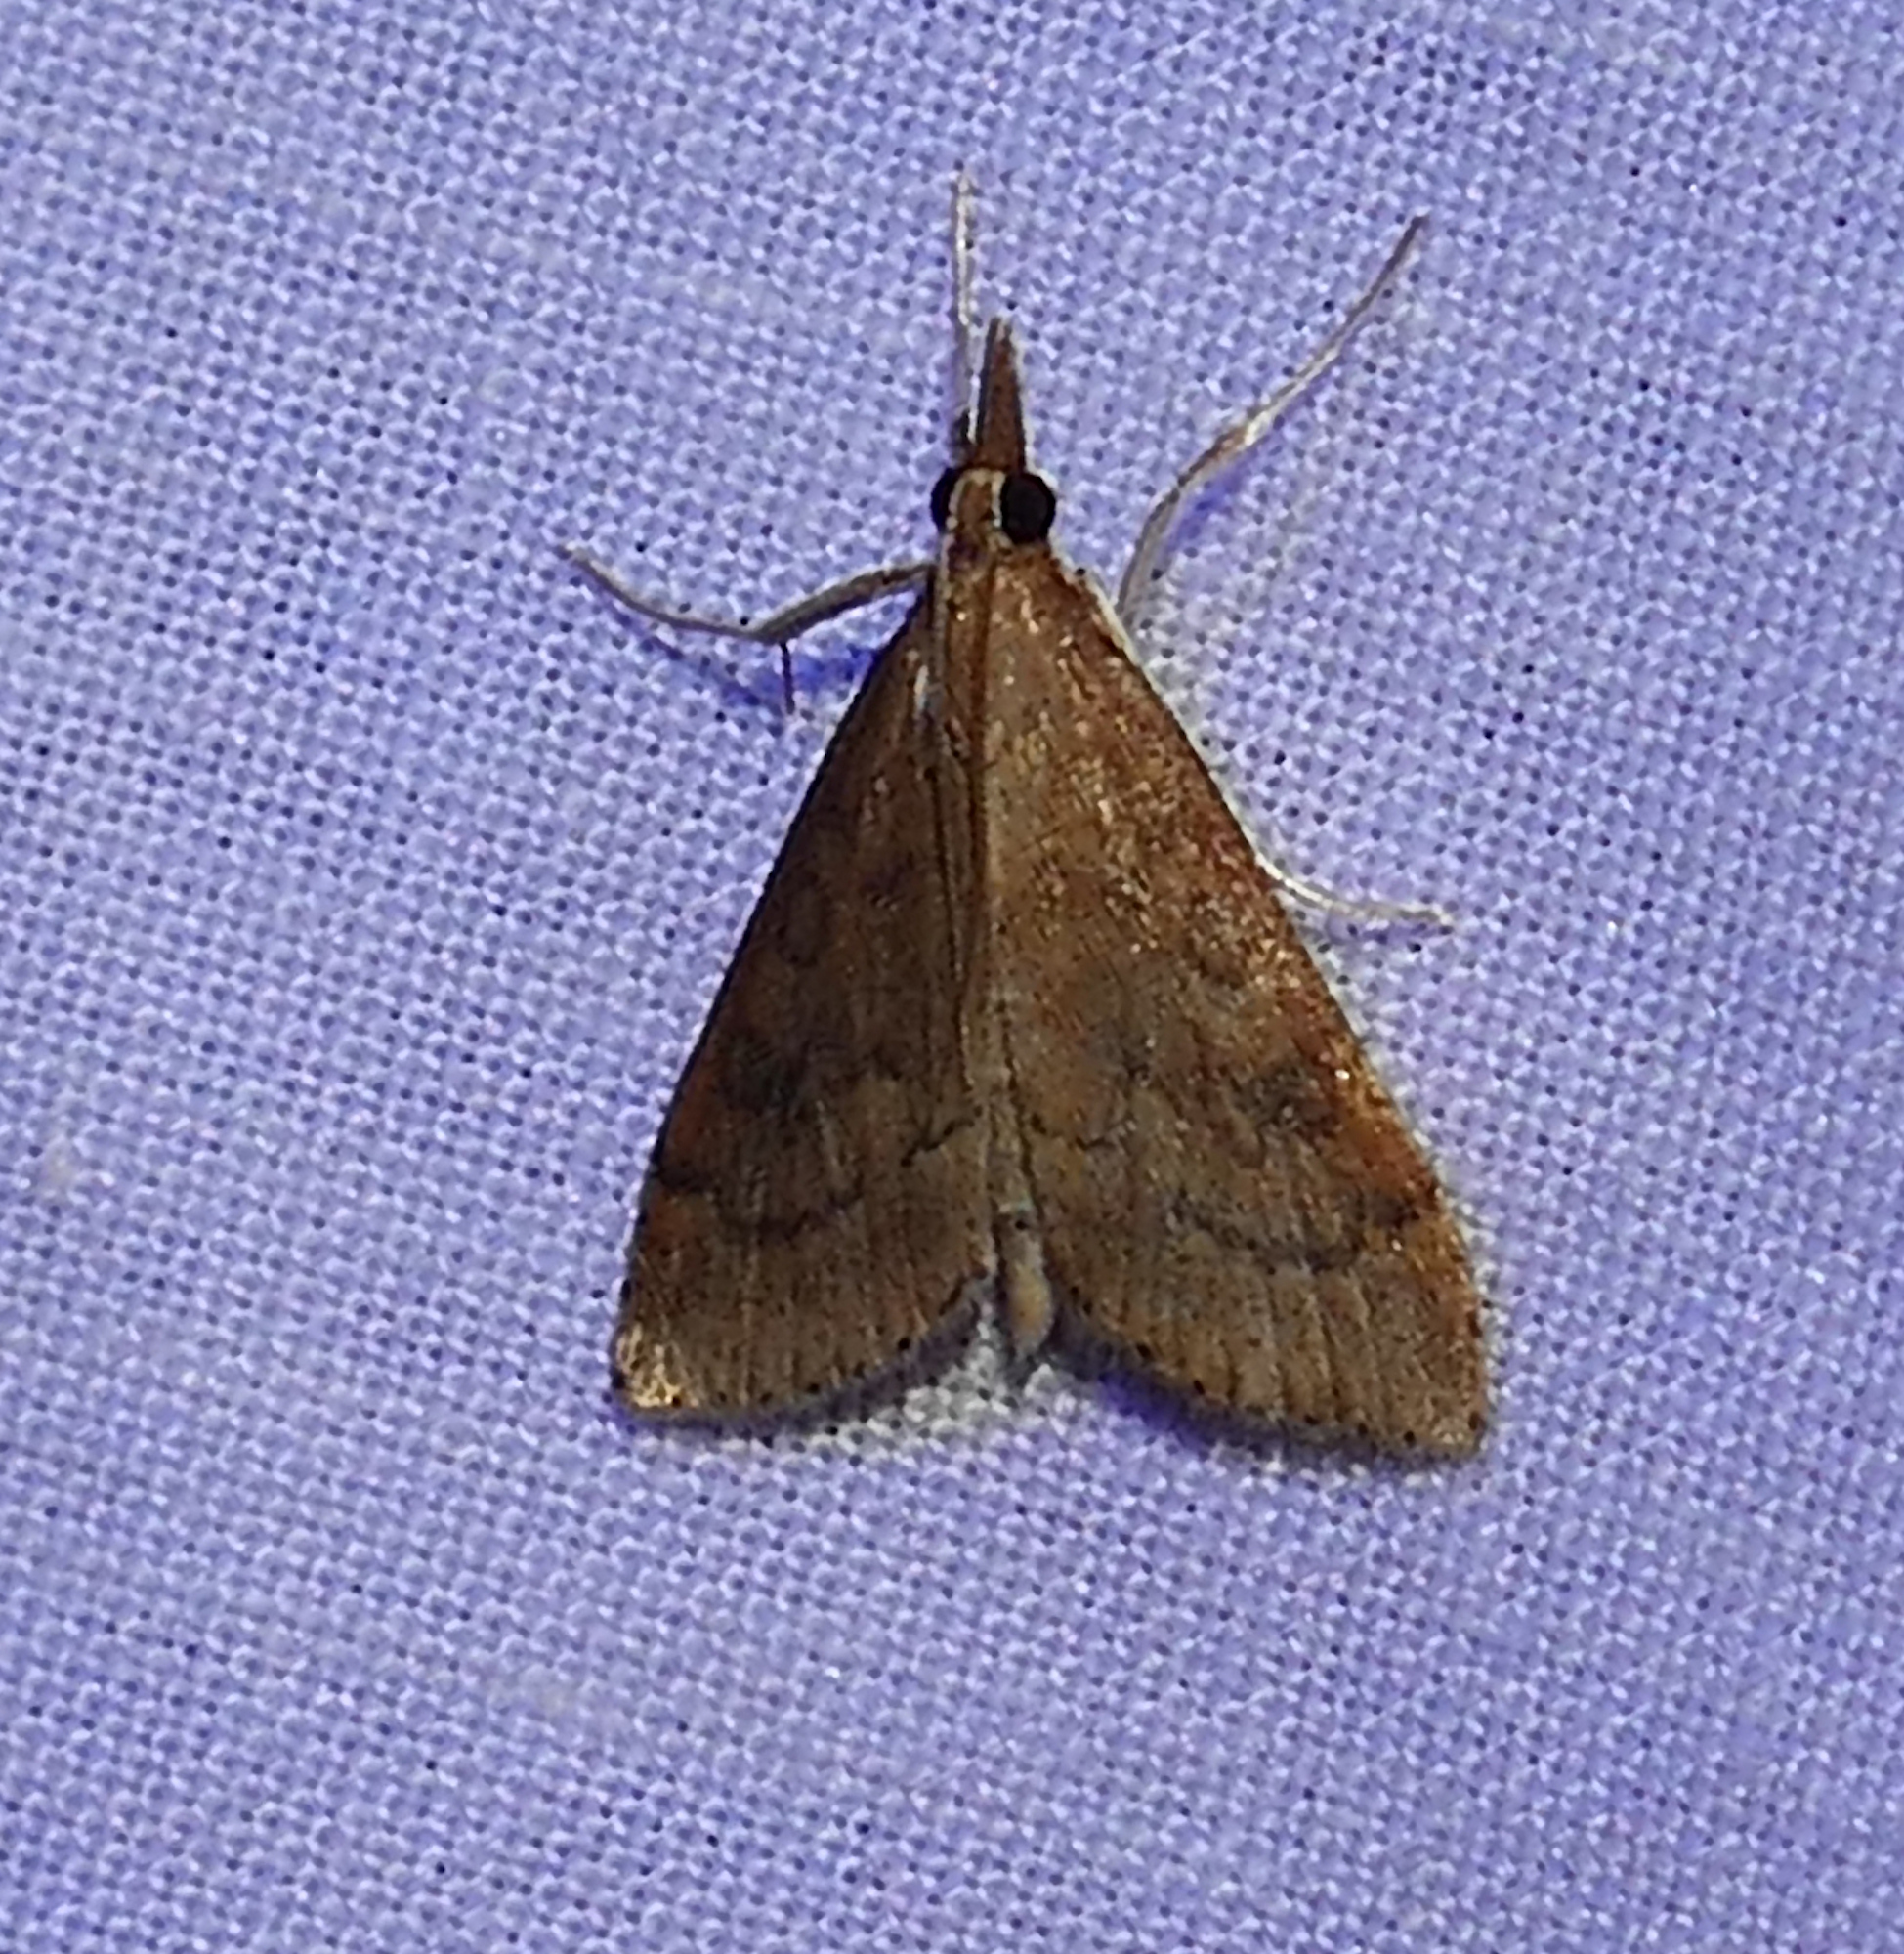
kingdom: Animalia
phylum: Arthropoda
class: Insecta
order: Lepidoptera
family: Crambidae
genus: Udea
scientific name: Udea rubigalis
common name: Celery leaftier moth
